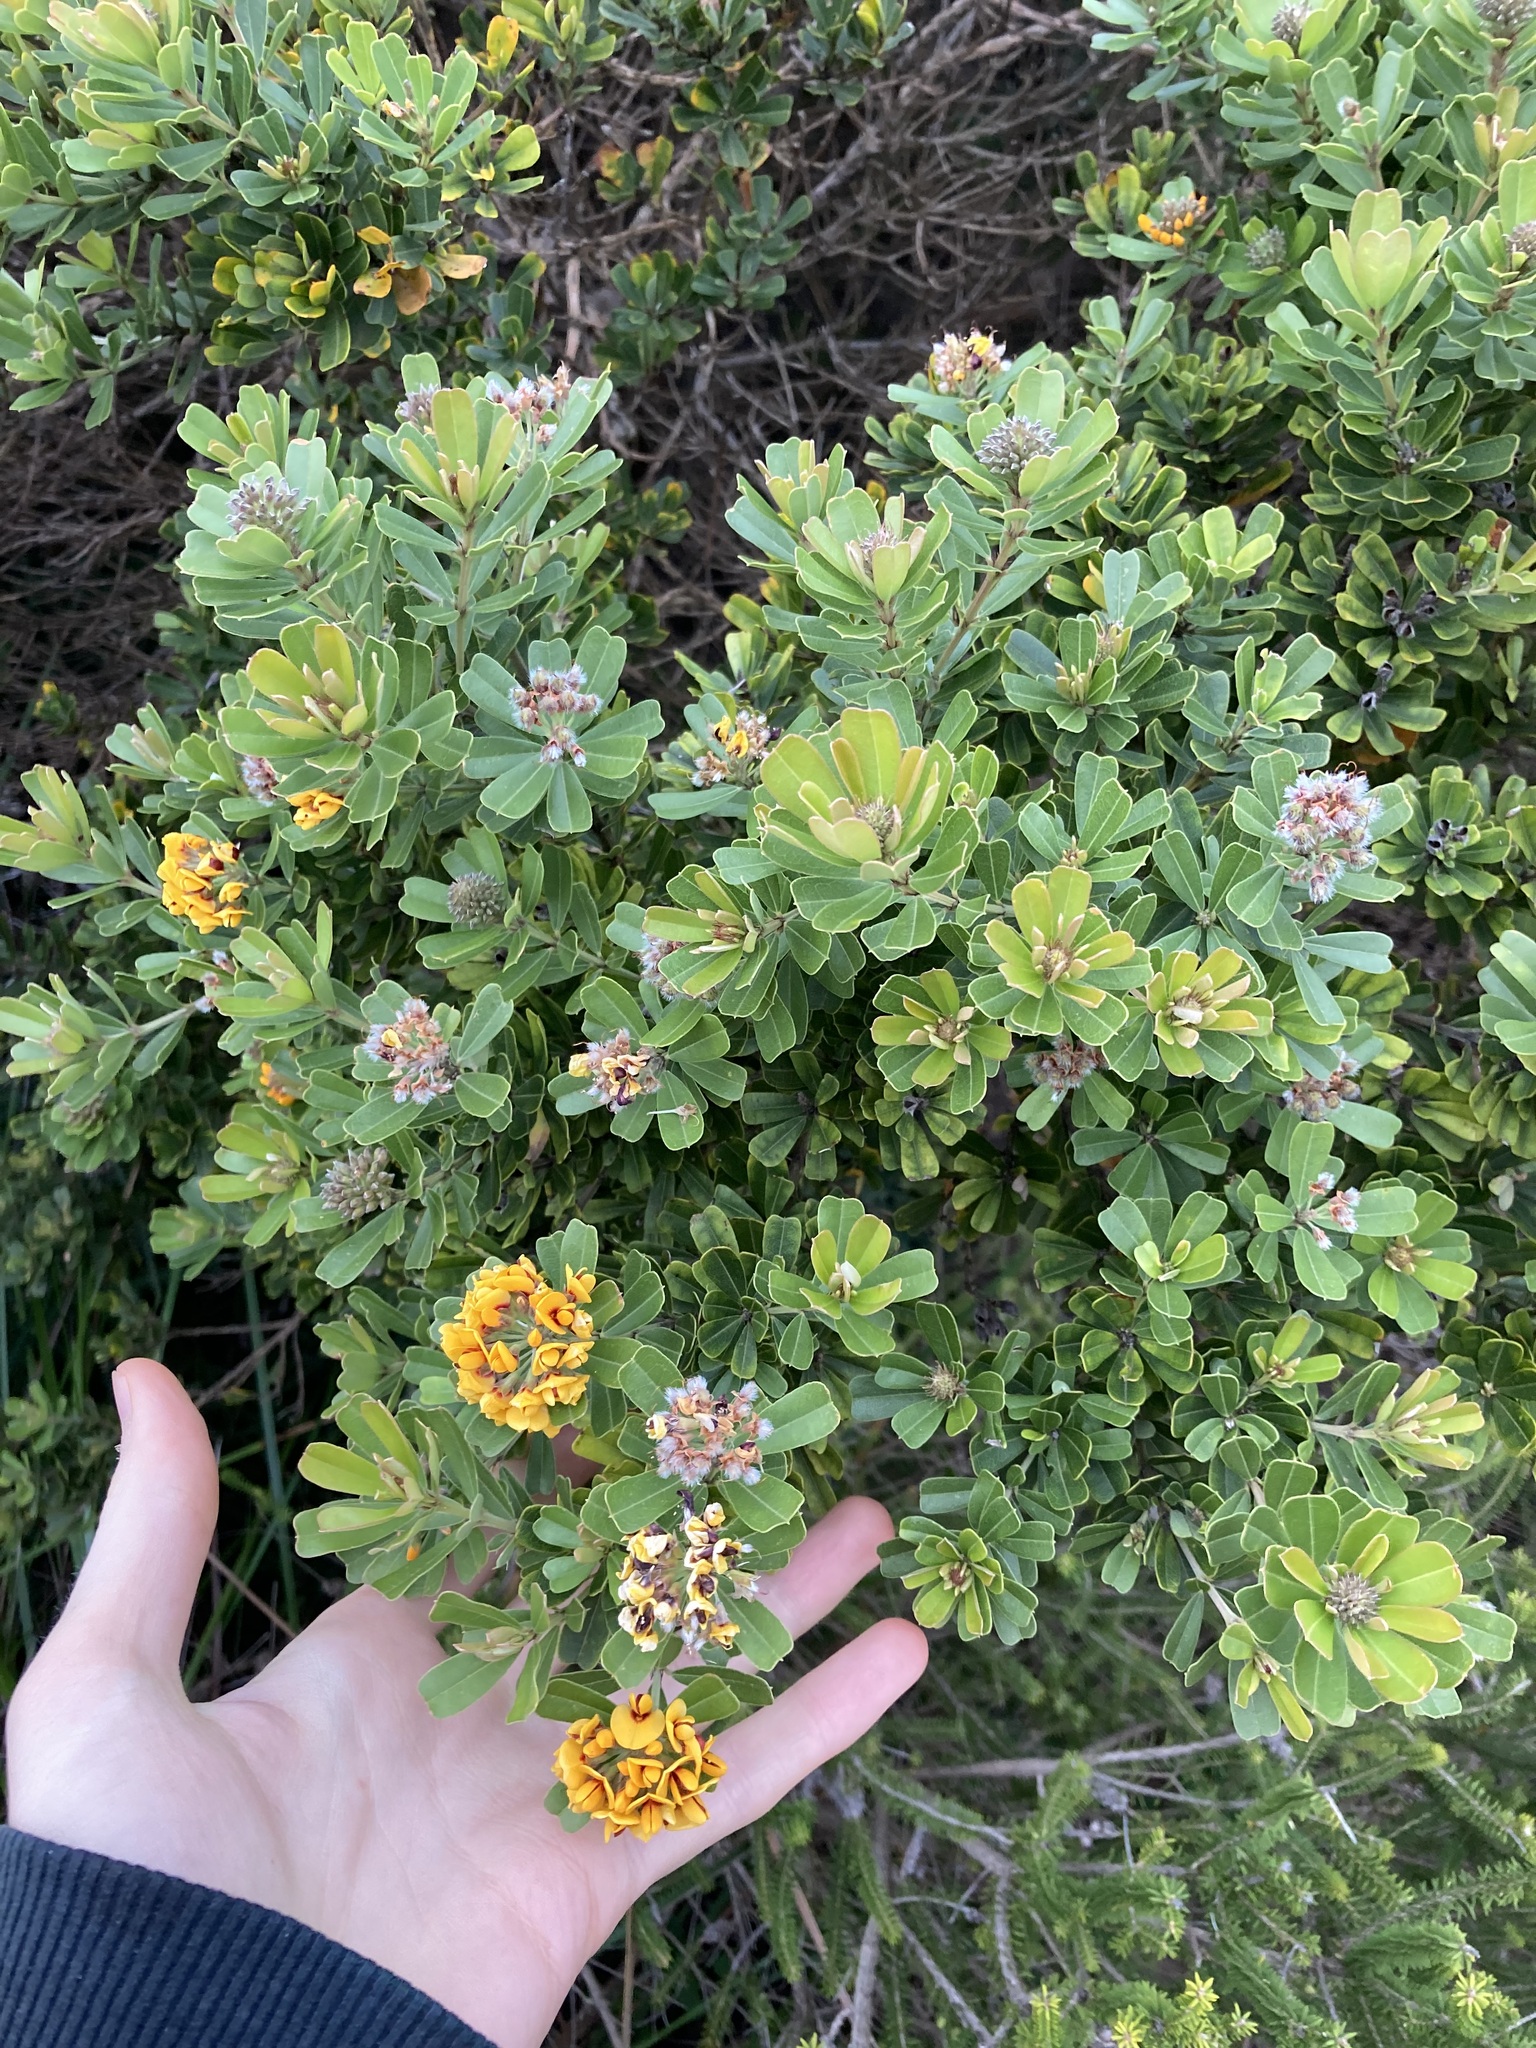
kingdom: Plantae
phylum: Tracheophyta
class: Magnoliopsida
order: Fabales
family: Fabaceae
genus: Gastrolobium
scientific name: Gastrolobium bilobum
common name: Heart-leaf poisonbush
